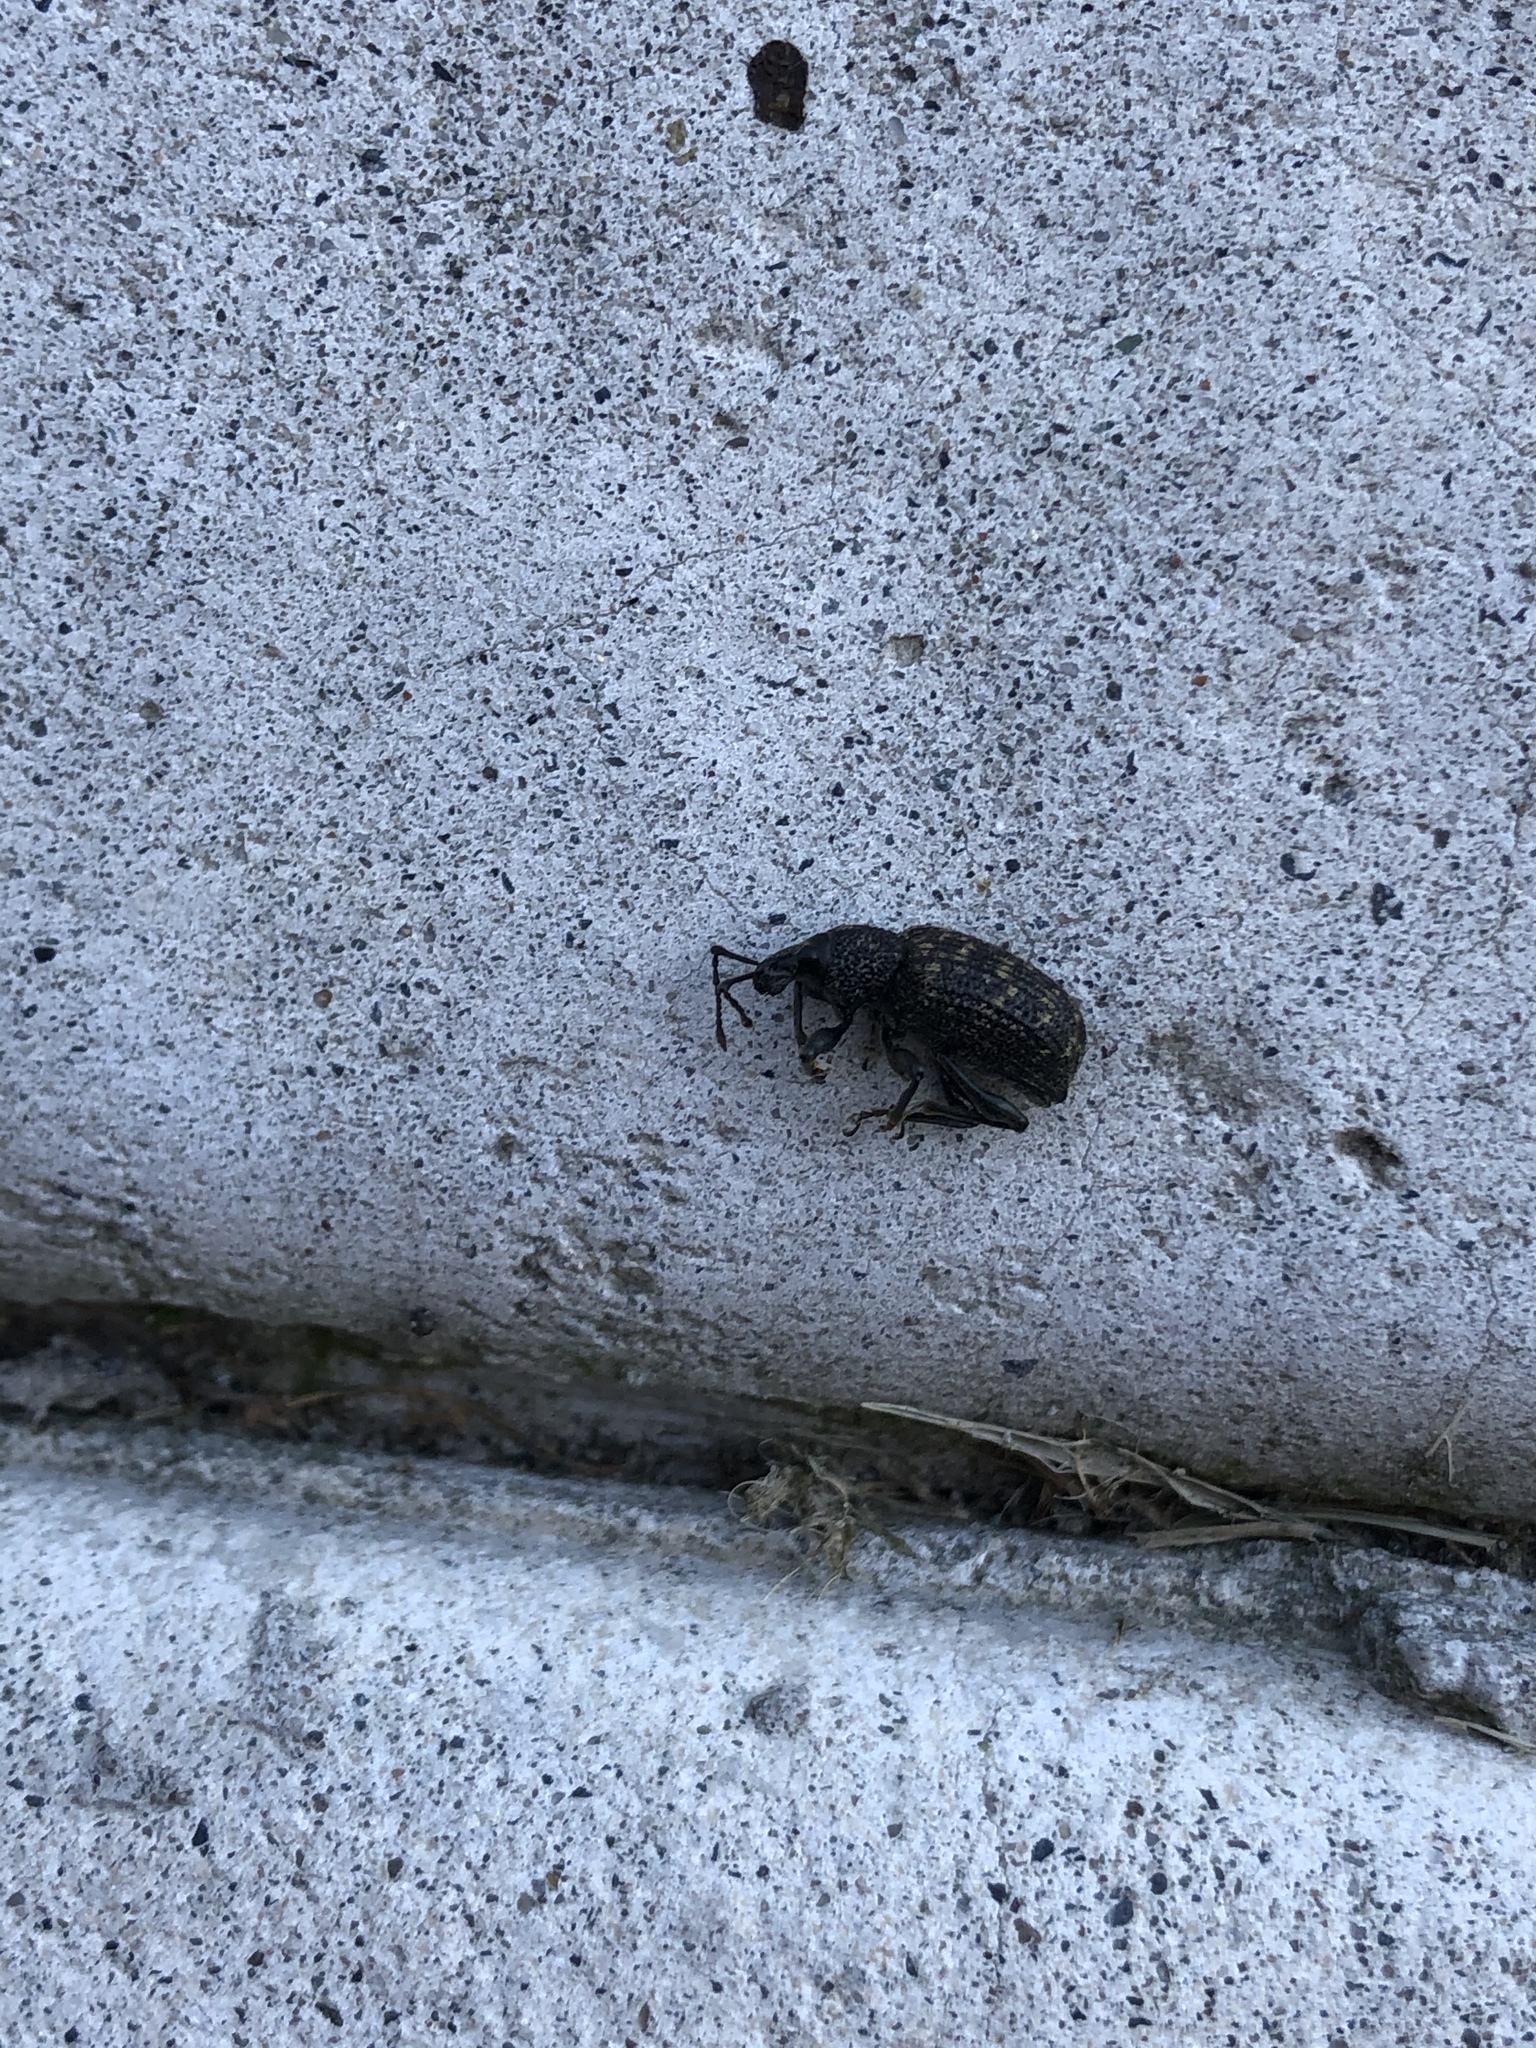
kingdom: Animalia
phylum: Arthropoda
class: Insecta
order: Coleoptera
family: Curculionidae
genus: Otiorhynchus
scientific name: Otiorhynchus sulcatus
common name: Black vine weevil
